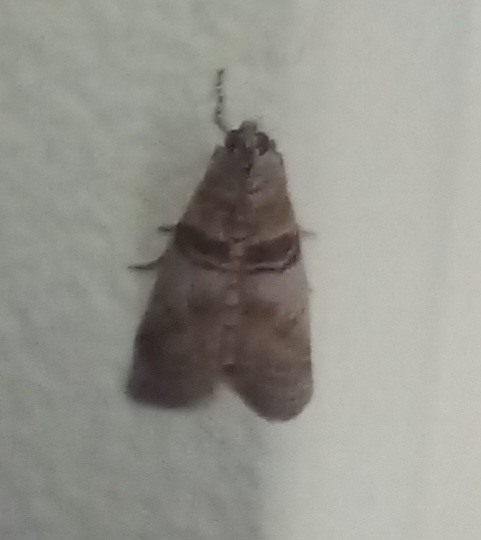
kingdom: Animalia
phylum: Arthropoda
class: Insecta
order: Lepidoptera
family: Pyralidae
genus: Sciota
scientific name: Sciota rhenella
